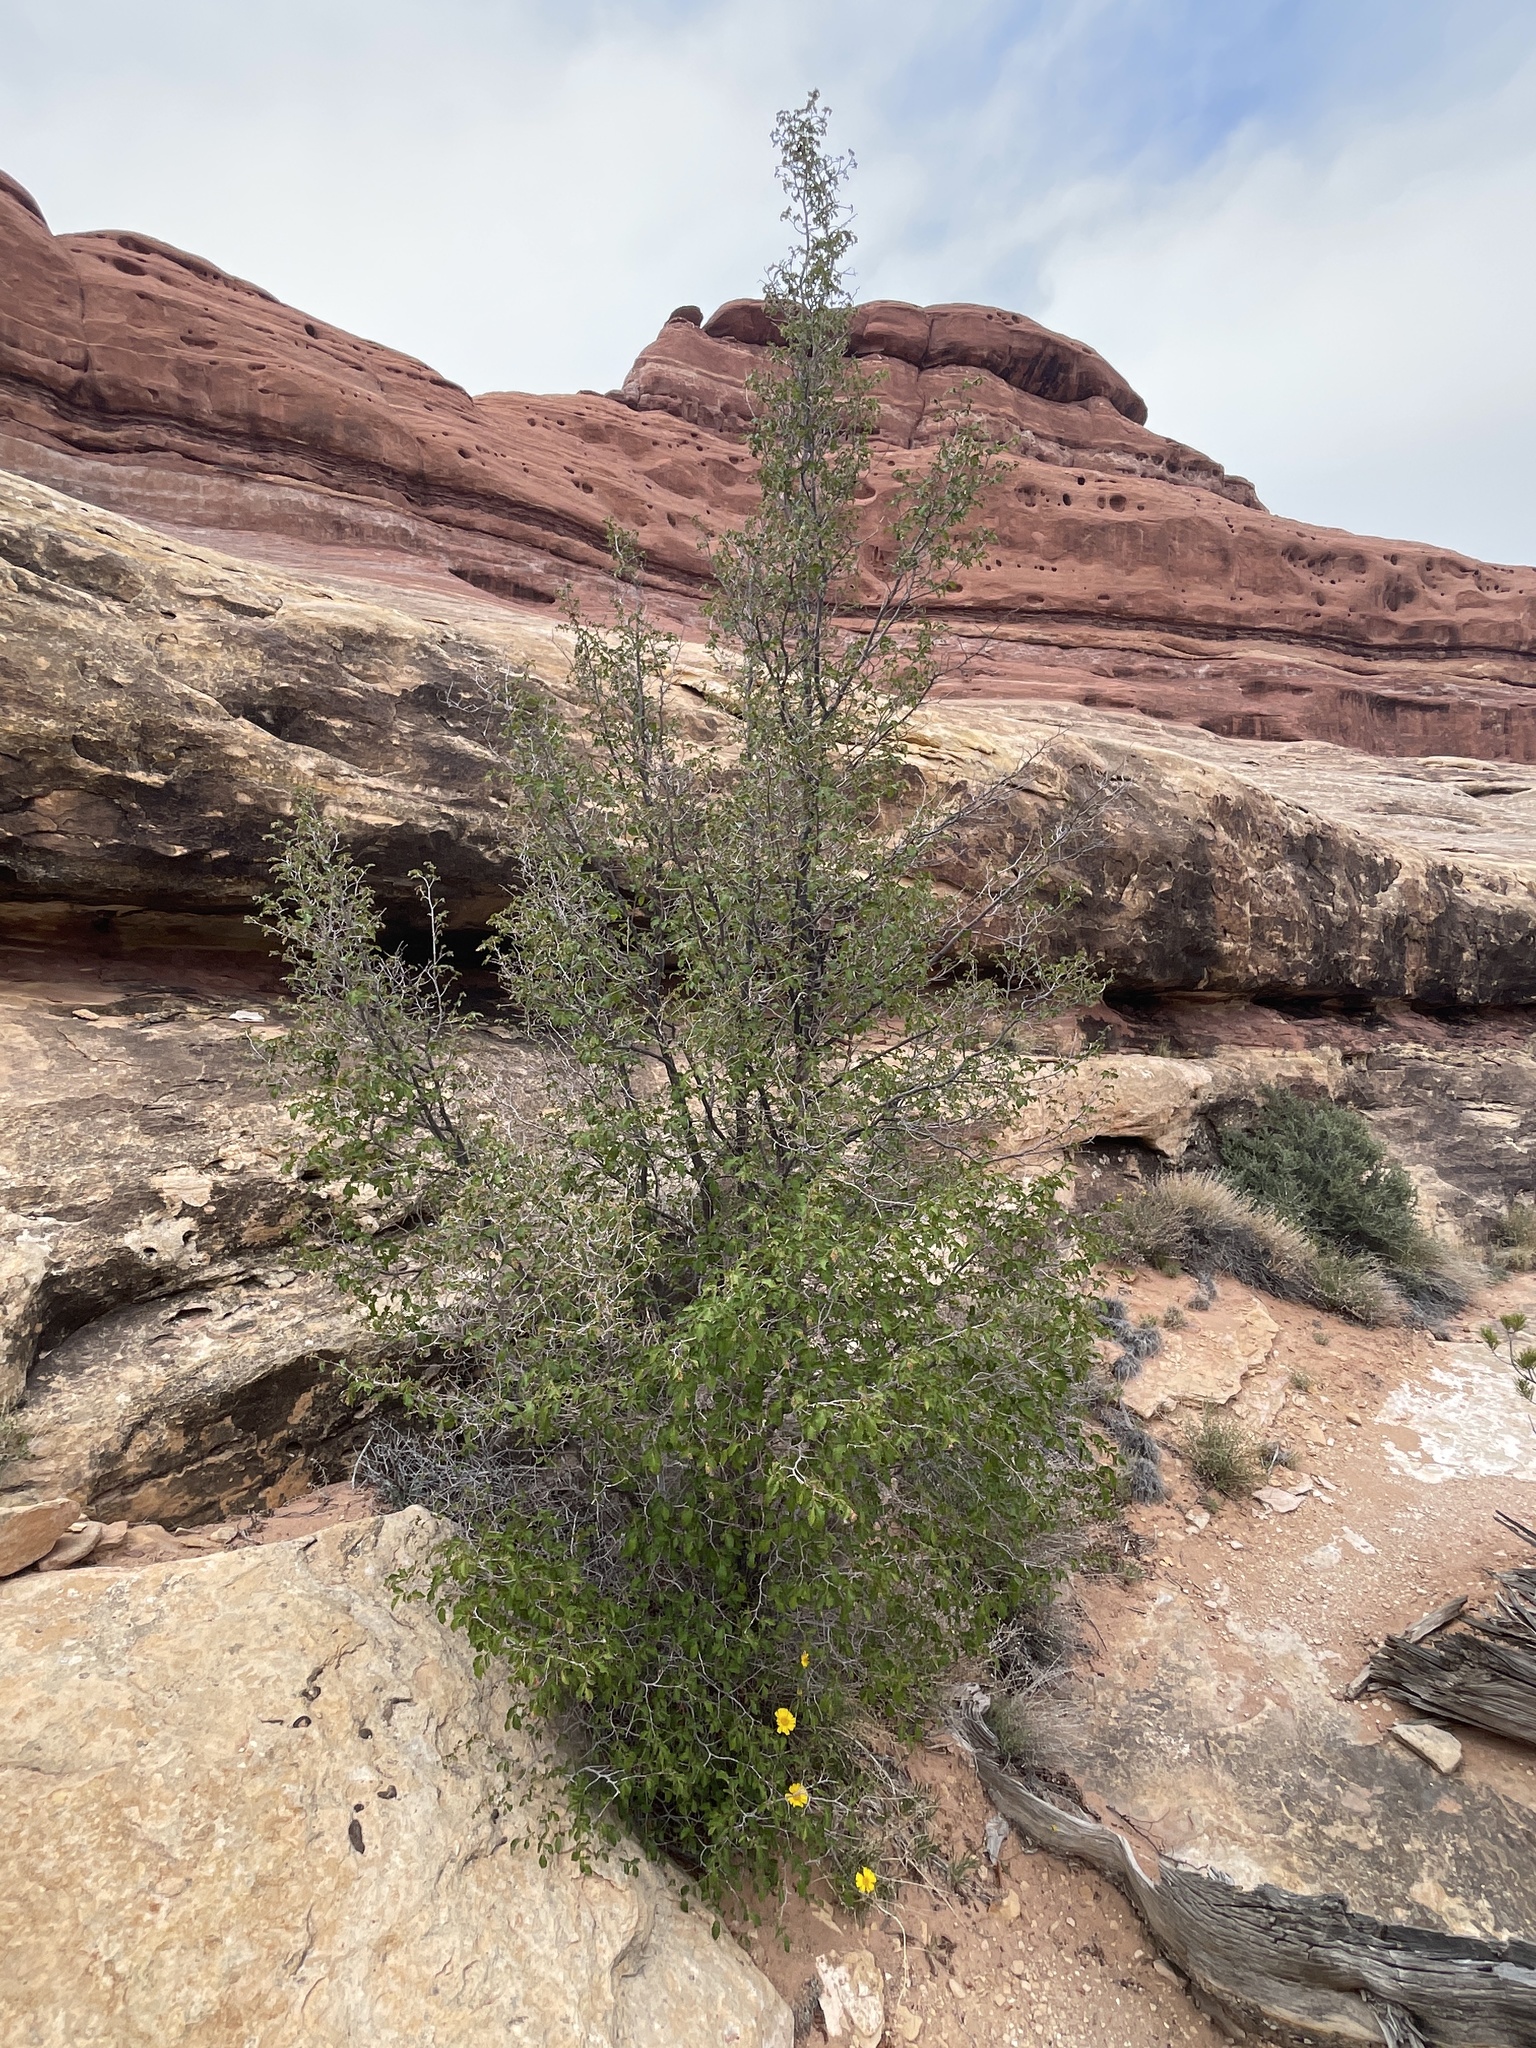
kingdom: Plantae
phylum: Tracheophyta
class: Magnoliopsida
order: Fagales
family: Betulaceae
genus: Ostrya
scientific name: Ostrya knowltonii
